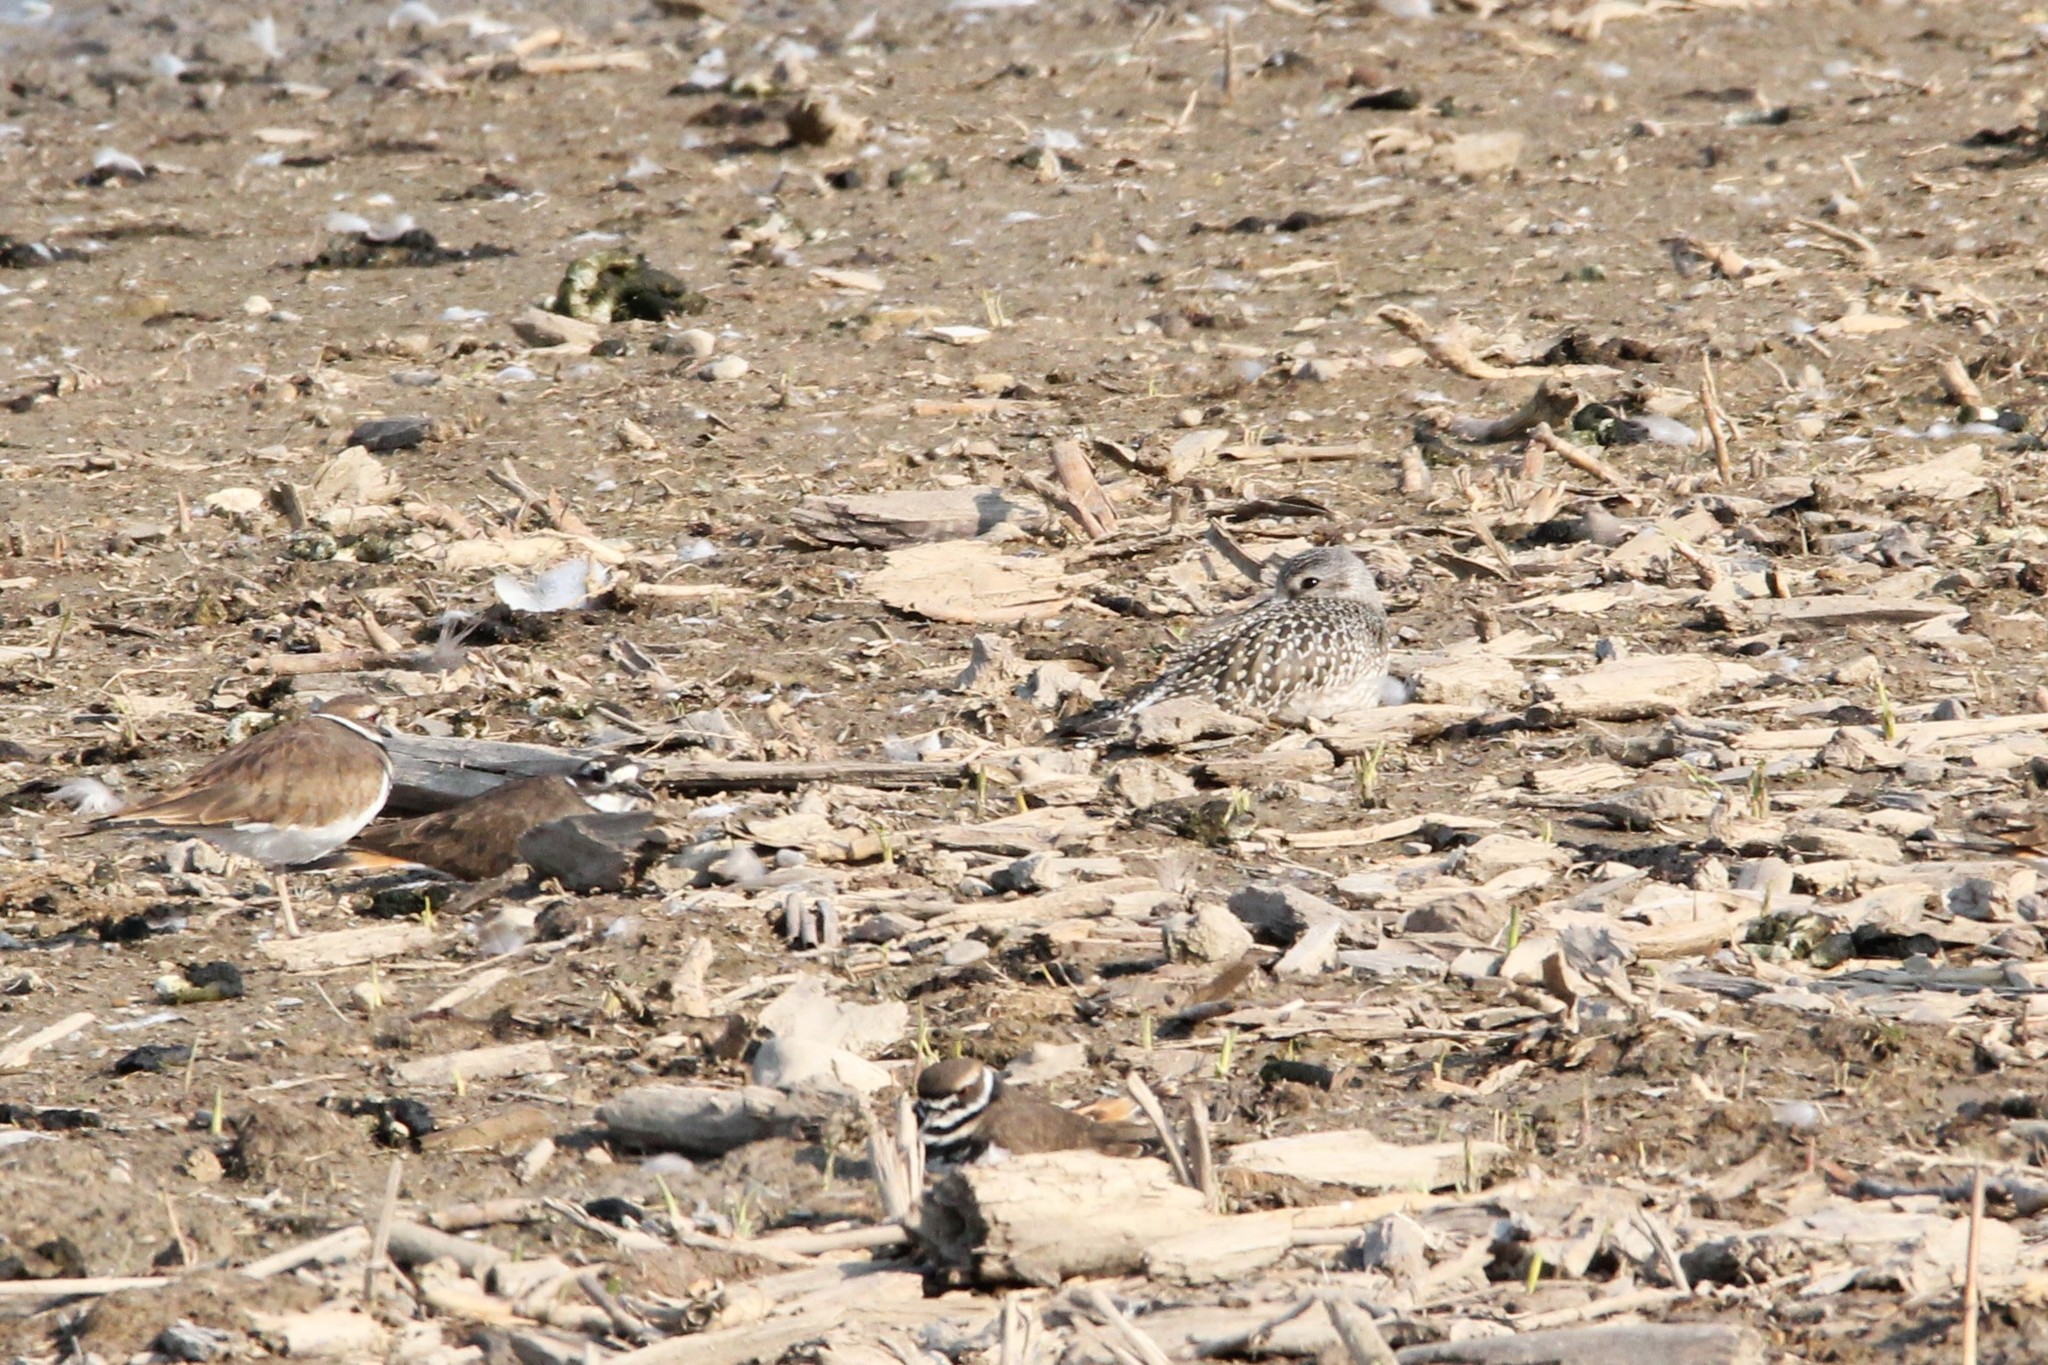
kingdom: Animalia
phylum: Chordata
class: Aves
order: Charadriiformes
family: Charadriidae
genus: Pluvialis
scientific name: Pluvialis squatarola
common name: Grey plover
